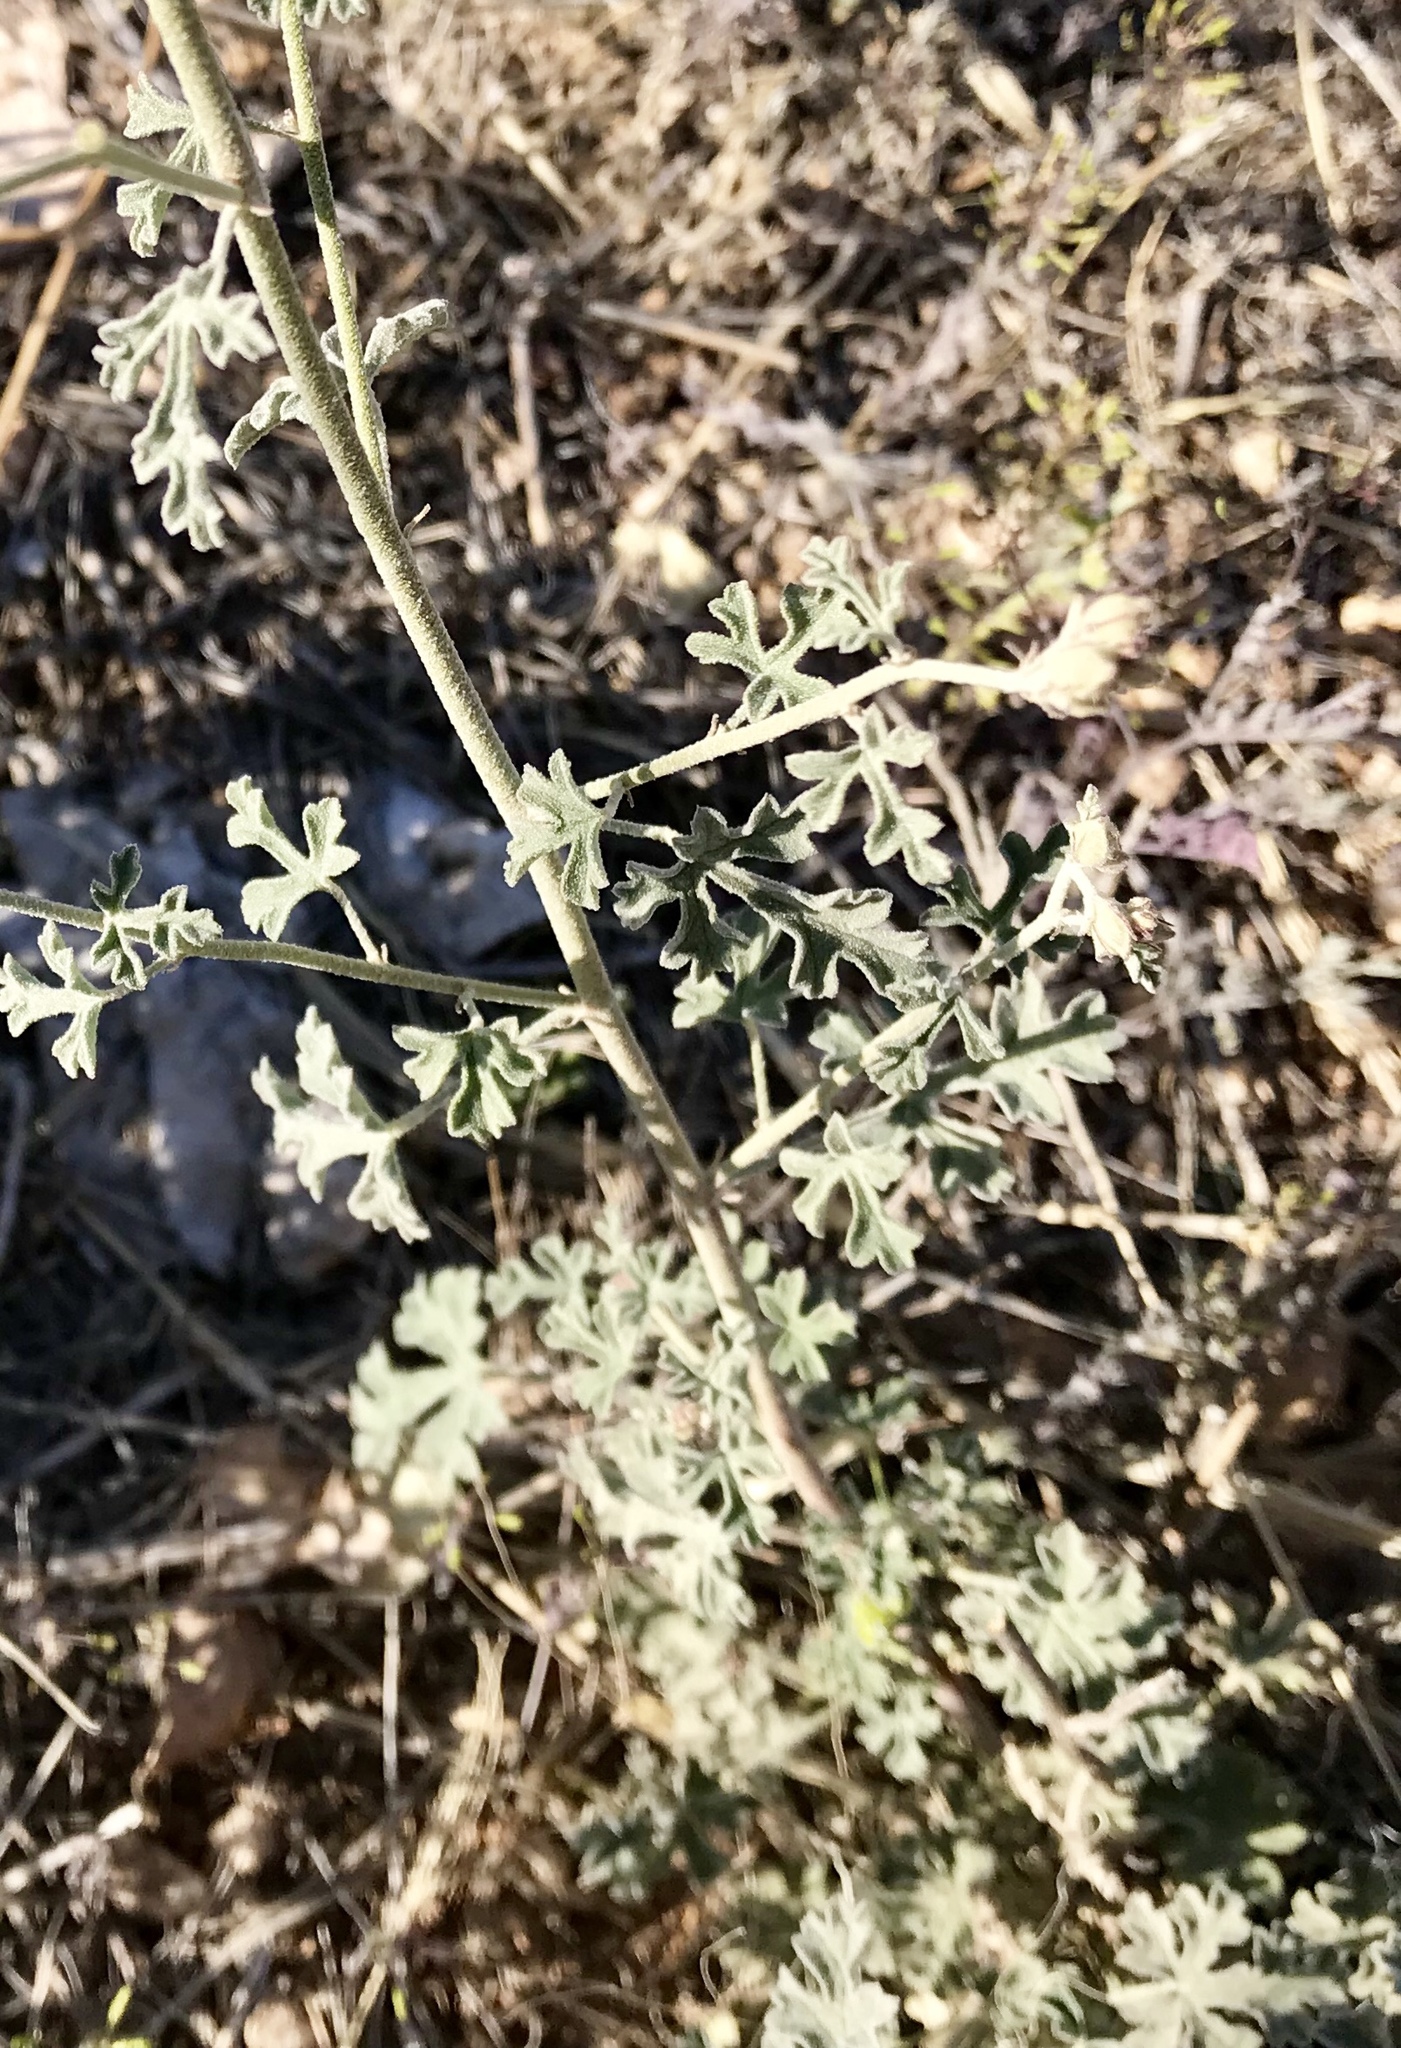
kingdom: Plantae
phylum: Tracheophyta
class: Magnoliopsida
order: Malvales
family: Malvaceae
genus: Sphaeralcea
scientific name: Sphaeralcea grossulariifolia
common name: Current-leaf globe-mallow
